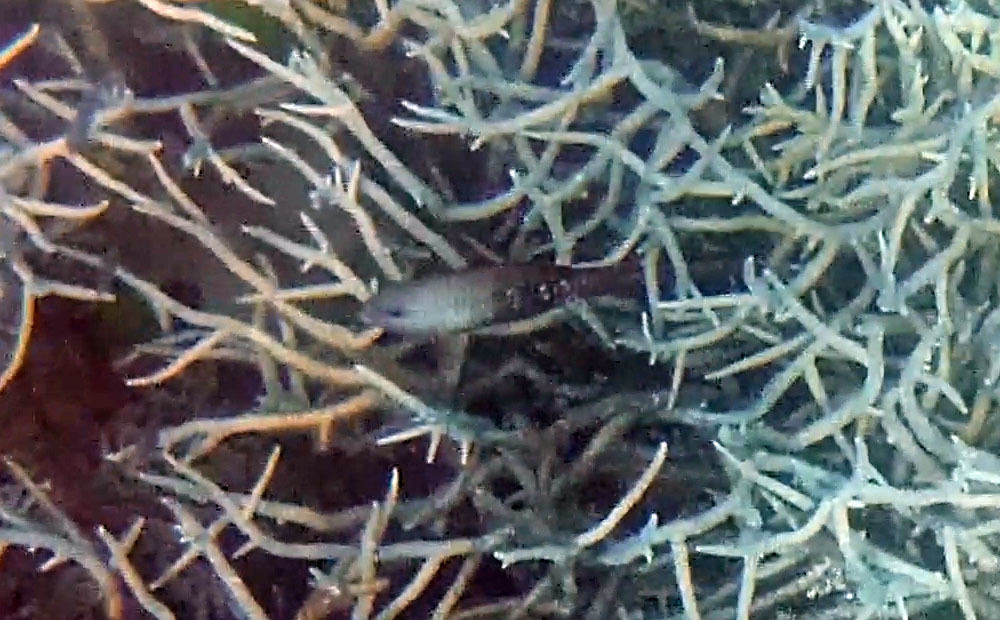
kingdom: Animalia
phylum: Chordata
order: Perciformes
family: Scaridae
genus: Chlorurus
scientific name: Chlorurus spilurus
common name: Bullethead parrotfish
